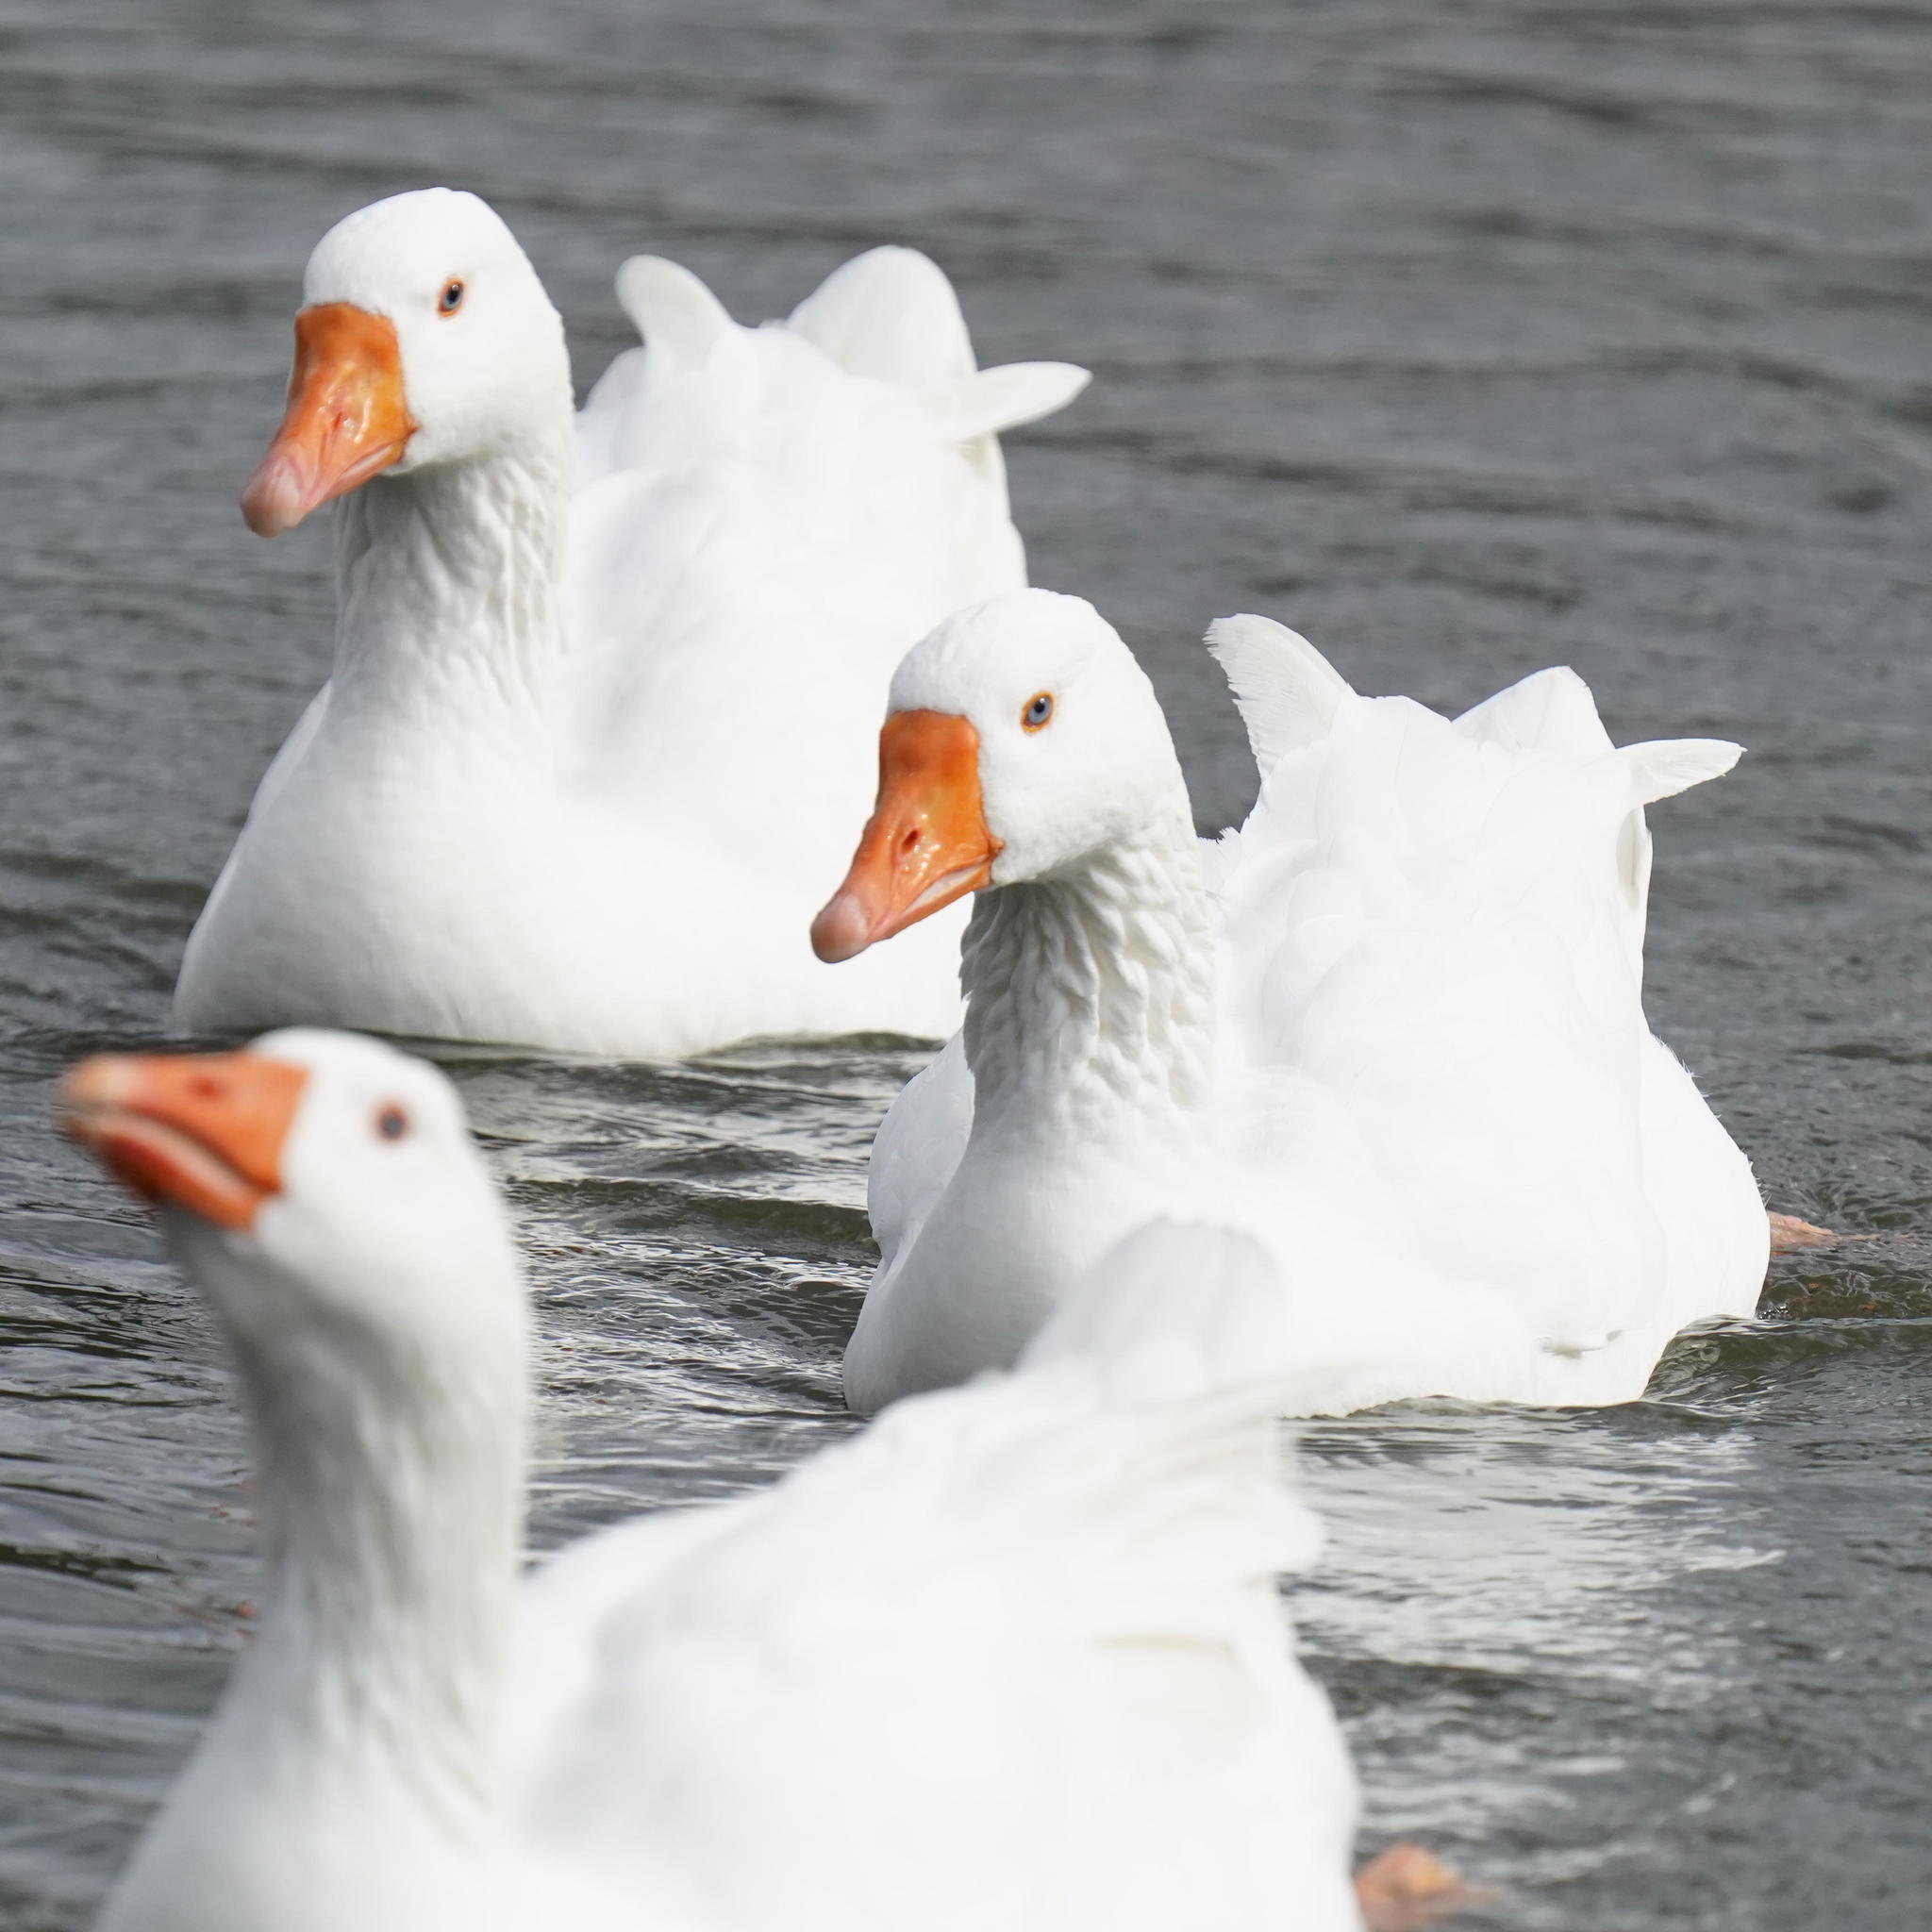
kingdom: Animalia
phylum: Chordata
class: Aves
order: Anseriformes
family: Anatidae
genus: Anser
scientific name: Anser
